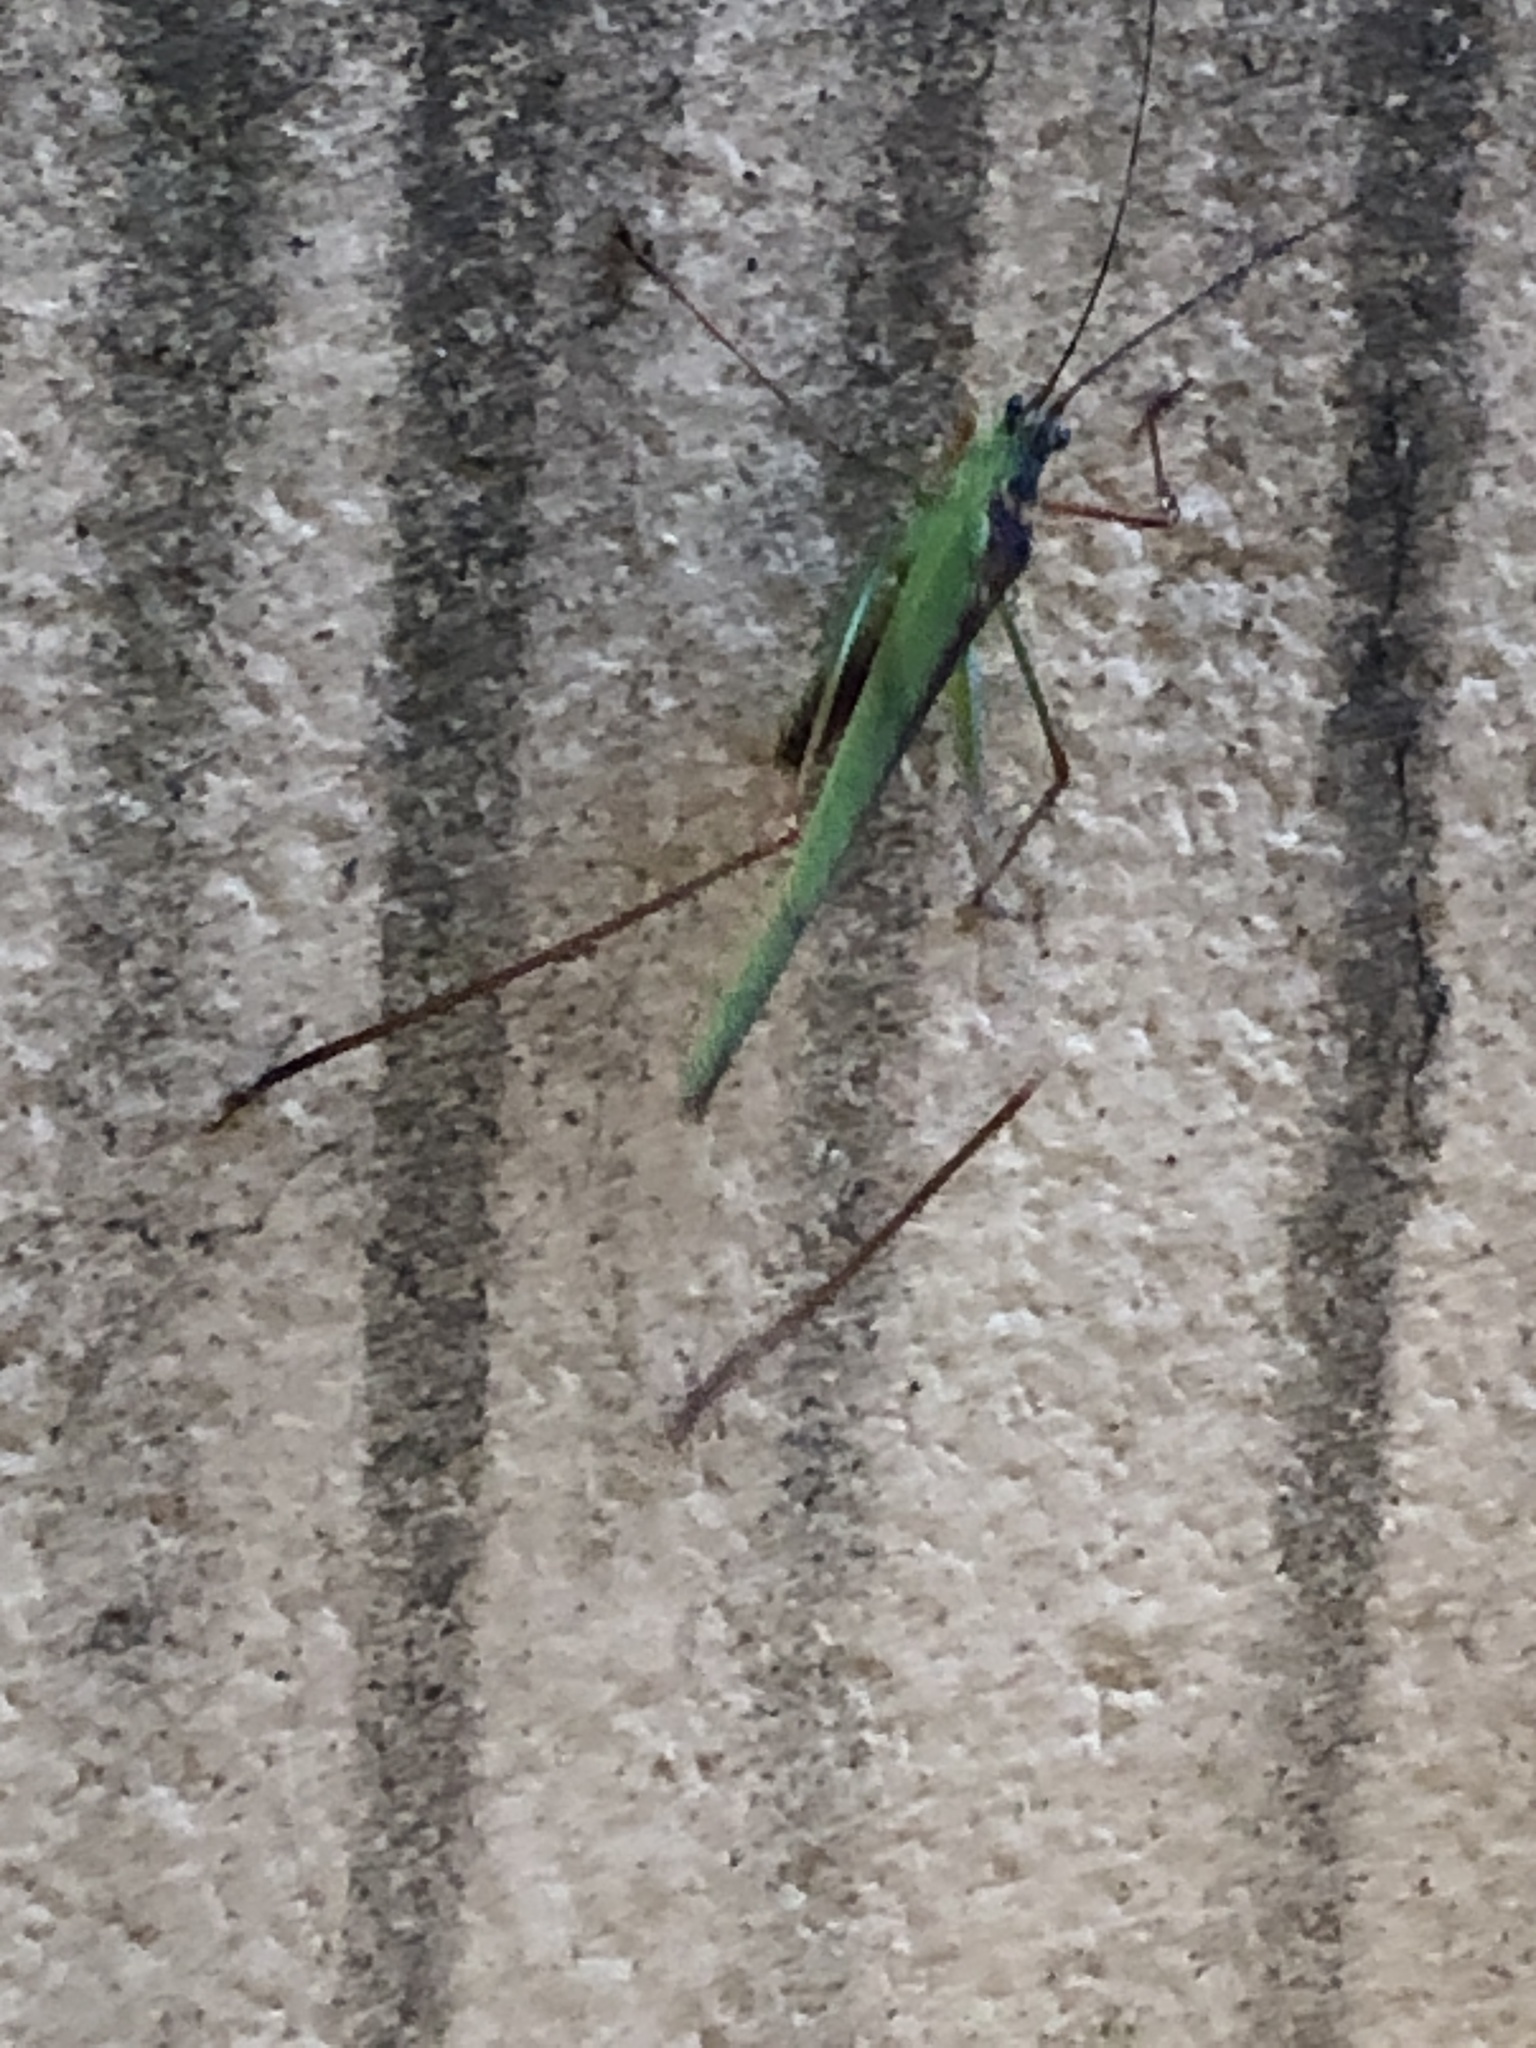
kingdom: Animalia
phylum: Arthropoda
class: Insecta
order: Orthoptera
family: Tettigoniidae
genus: Phaneroptera
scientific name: Phaneroptera nigroantennata
